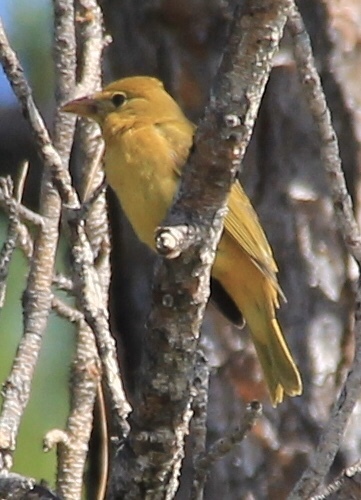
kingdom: Animalia
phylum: Chordata
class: Aves
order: Passeriformes
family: Cardinalidae
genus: Piranga
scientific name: Piranga rubra
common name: Summer tanager
